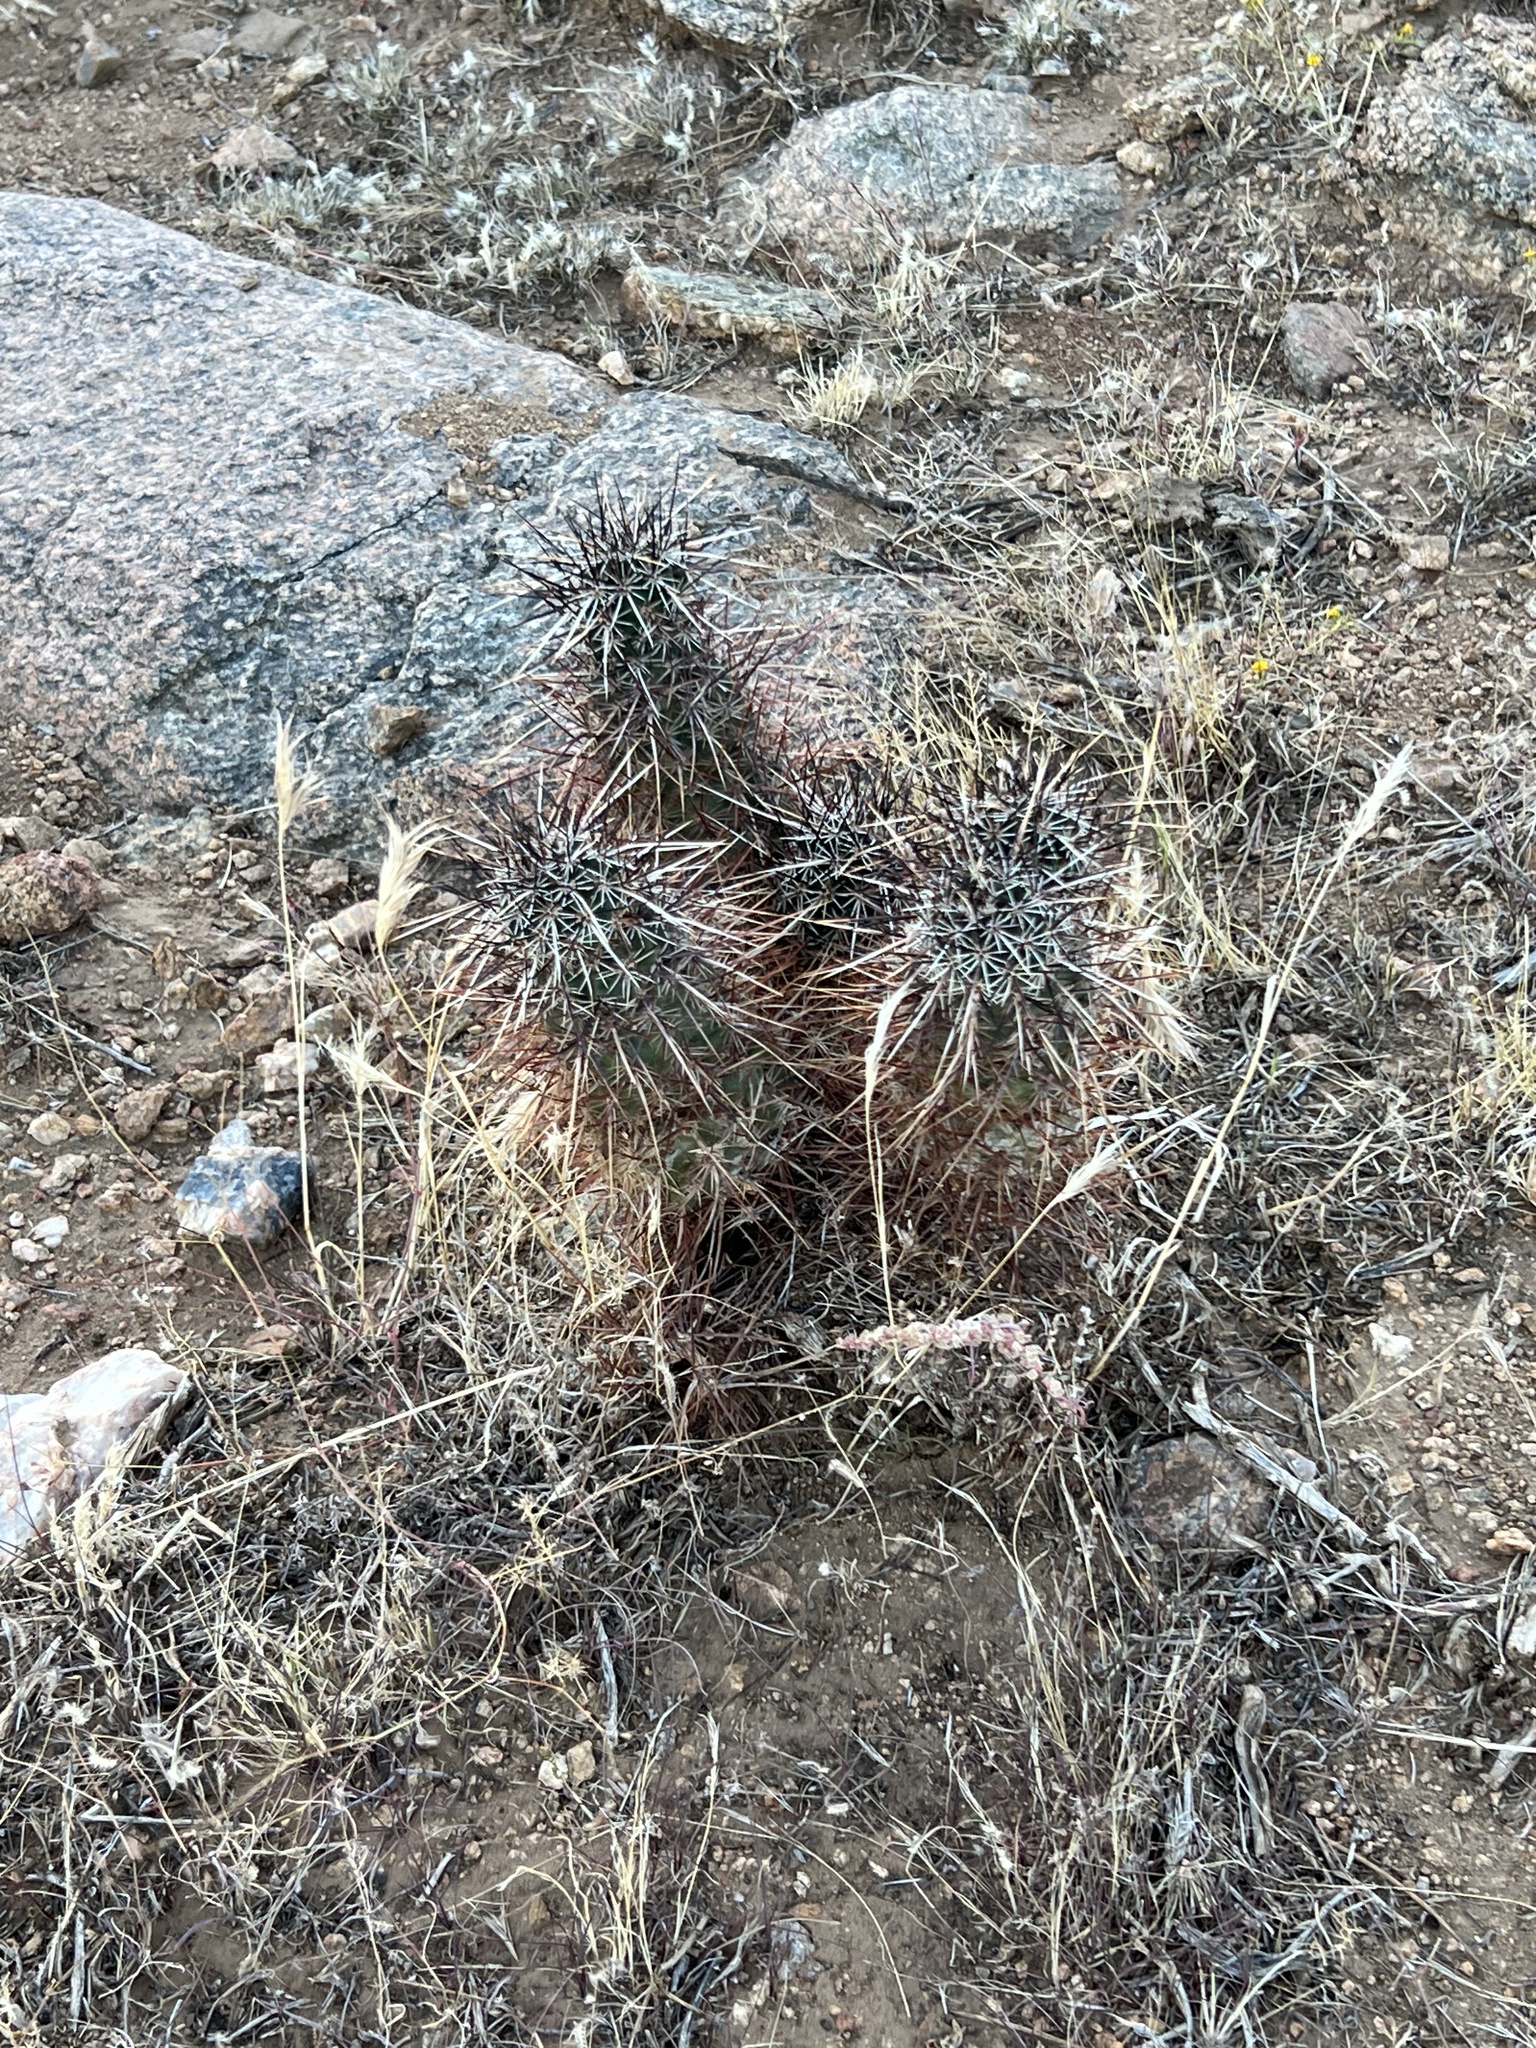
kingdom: Plantae
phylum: Tracheophyta
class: Magnoliopsida
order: Caryophyllales
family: Cactaceae
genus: Echinocereus
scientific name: Echinocereus engelmannii
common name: Engelmann's hedgehog cactus
